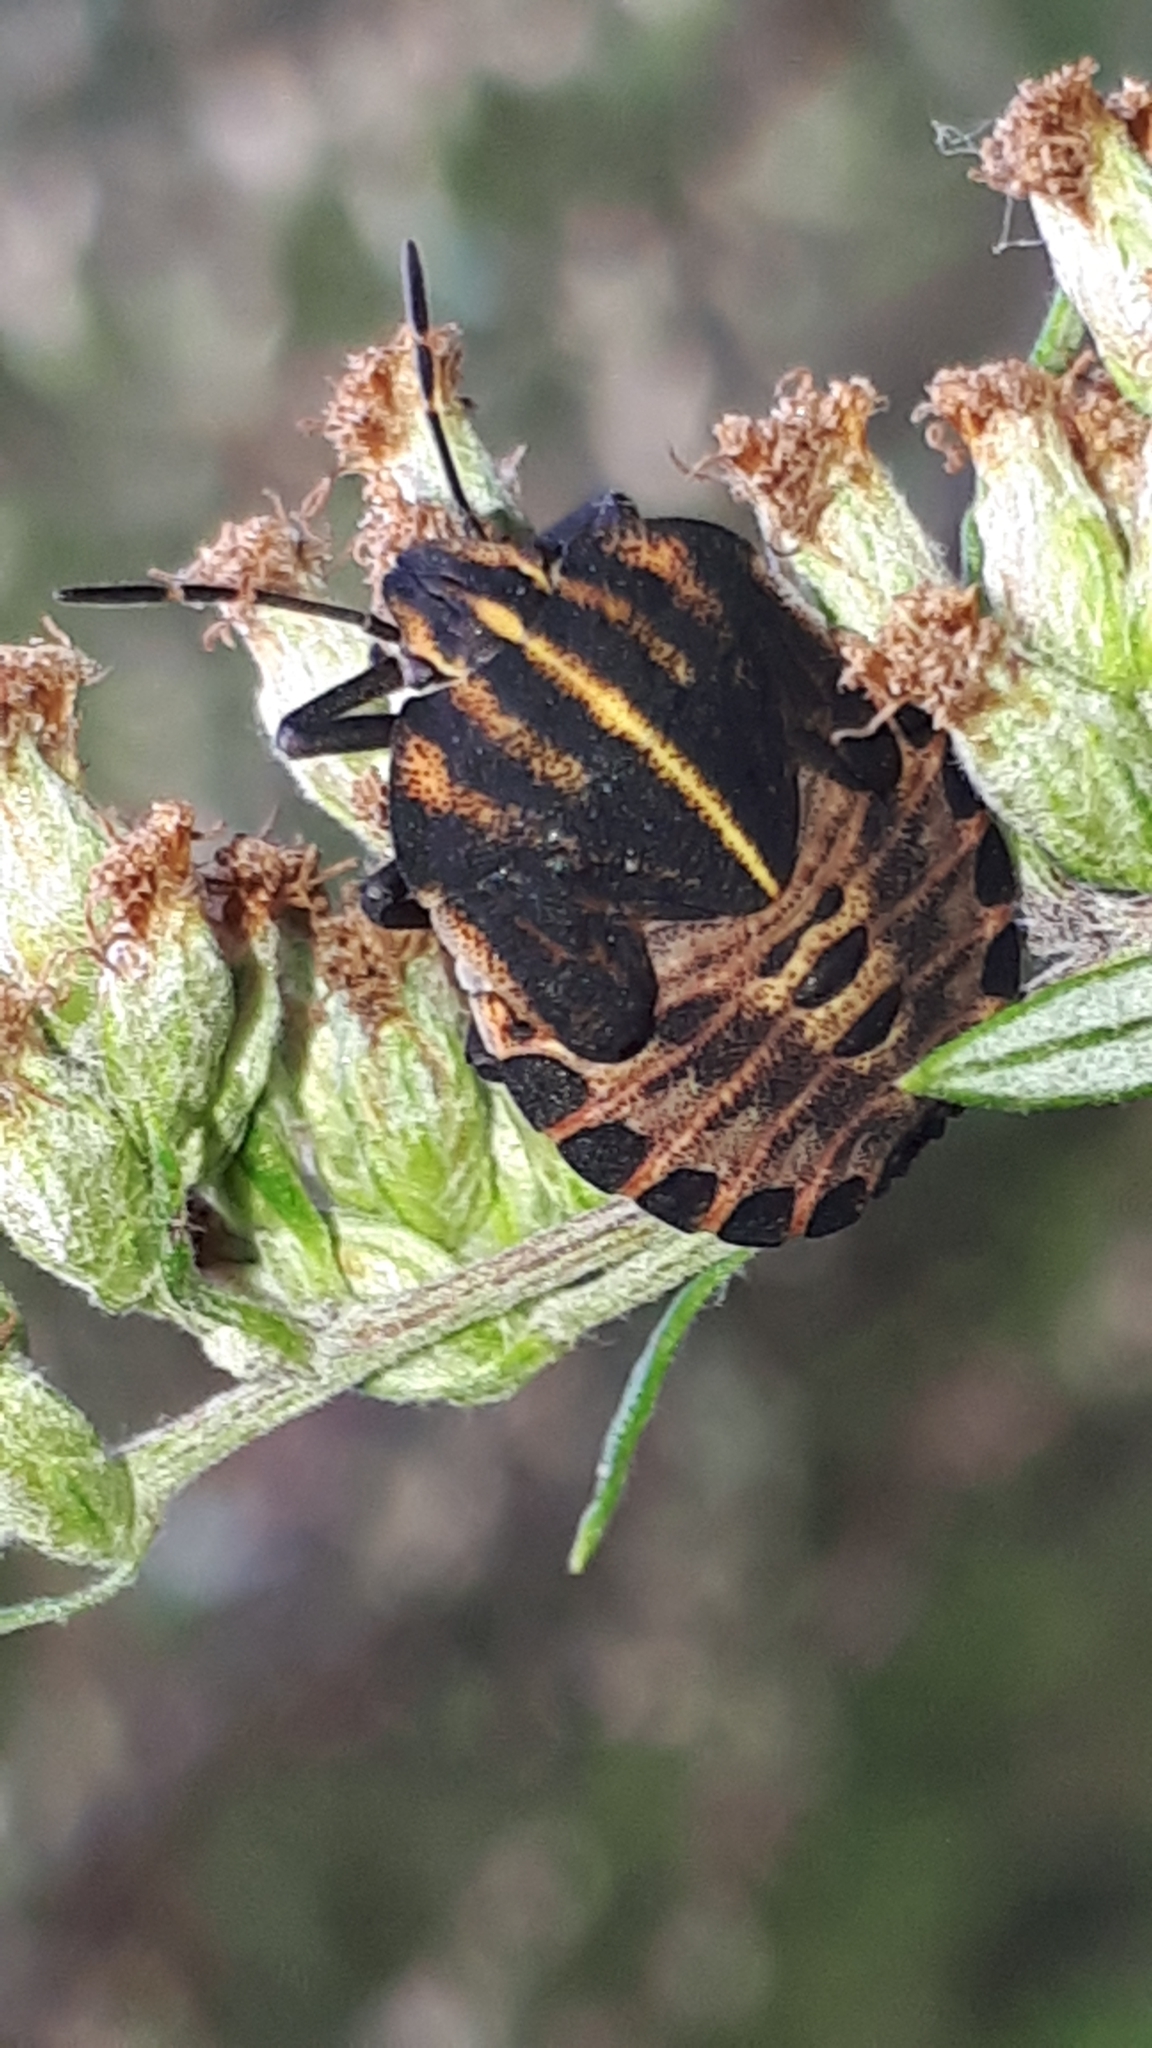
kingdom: Animalia
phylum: Arthropoda
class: Insecta
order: Hemiptera
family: Pentatomidae
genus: Graphosoma
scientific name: Graphosoma italicum
